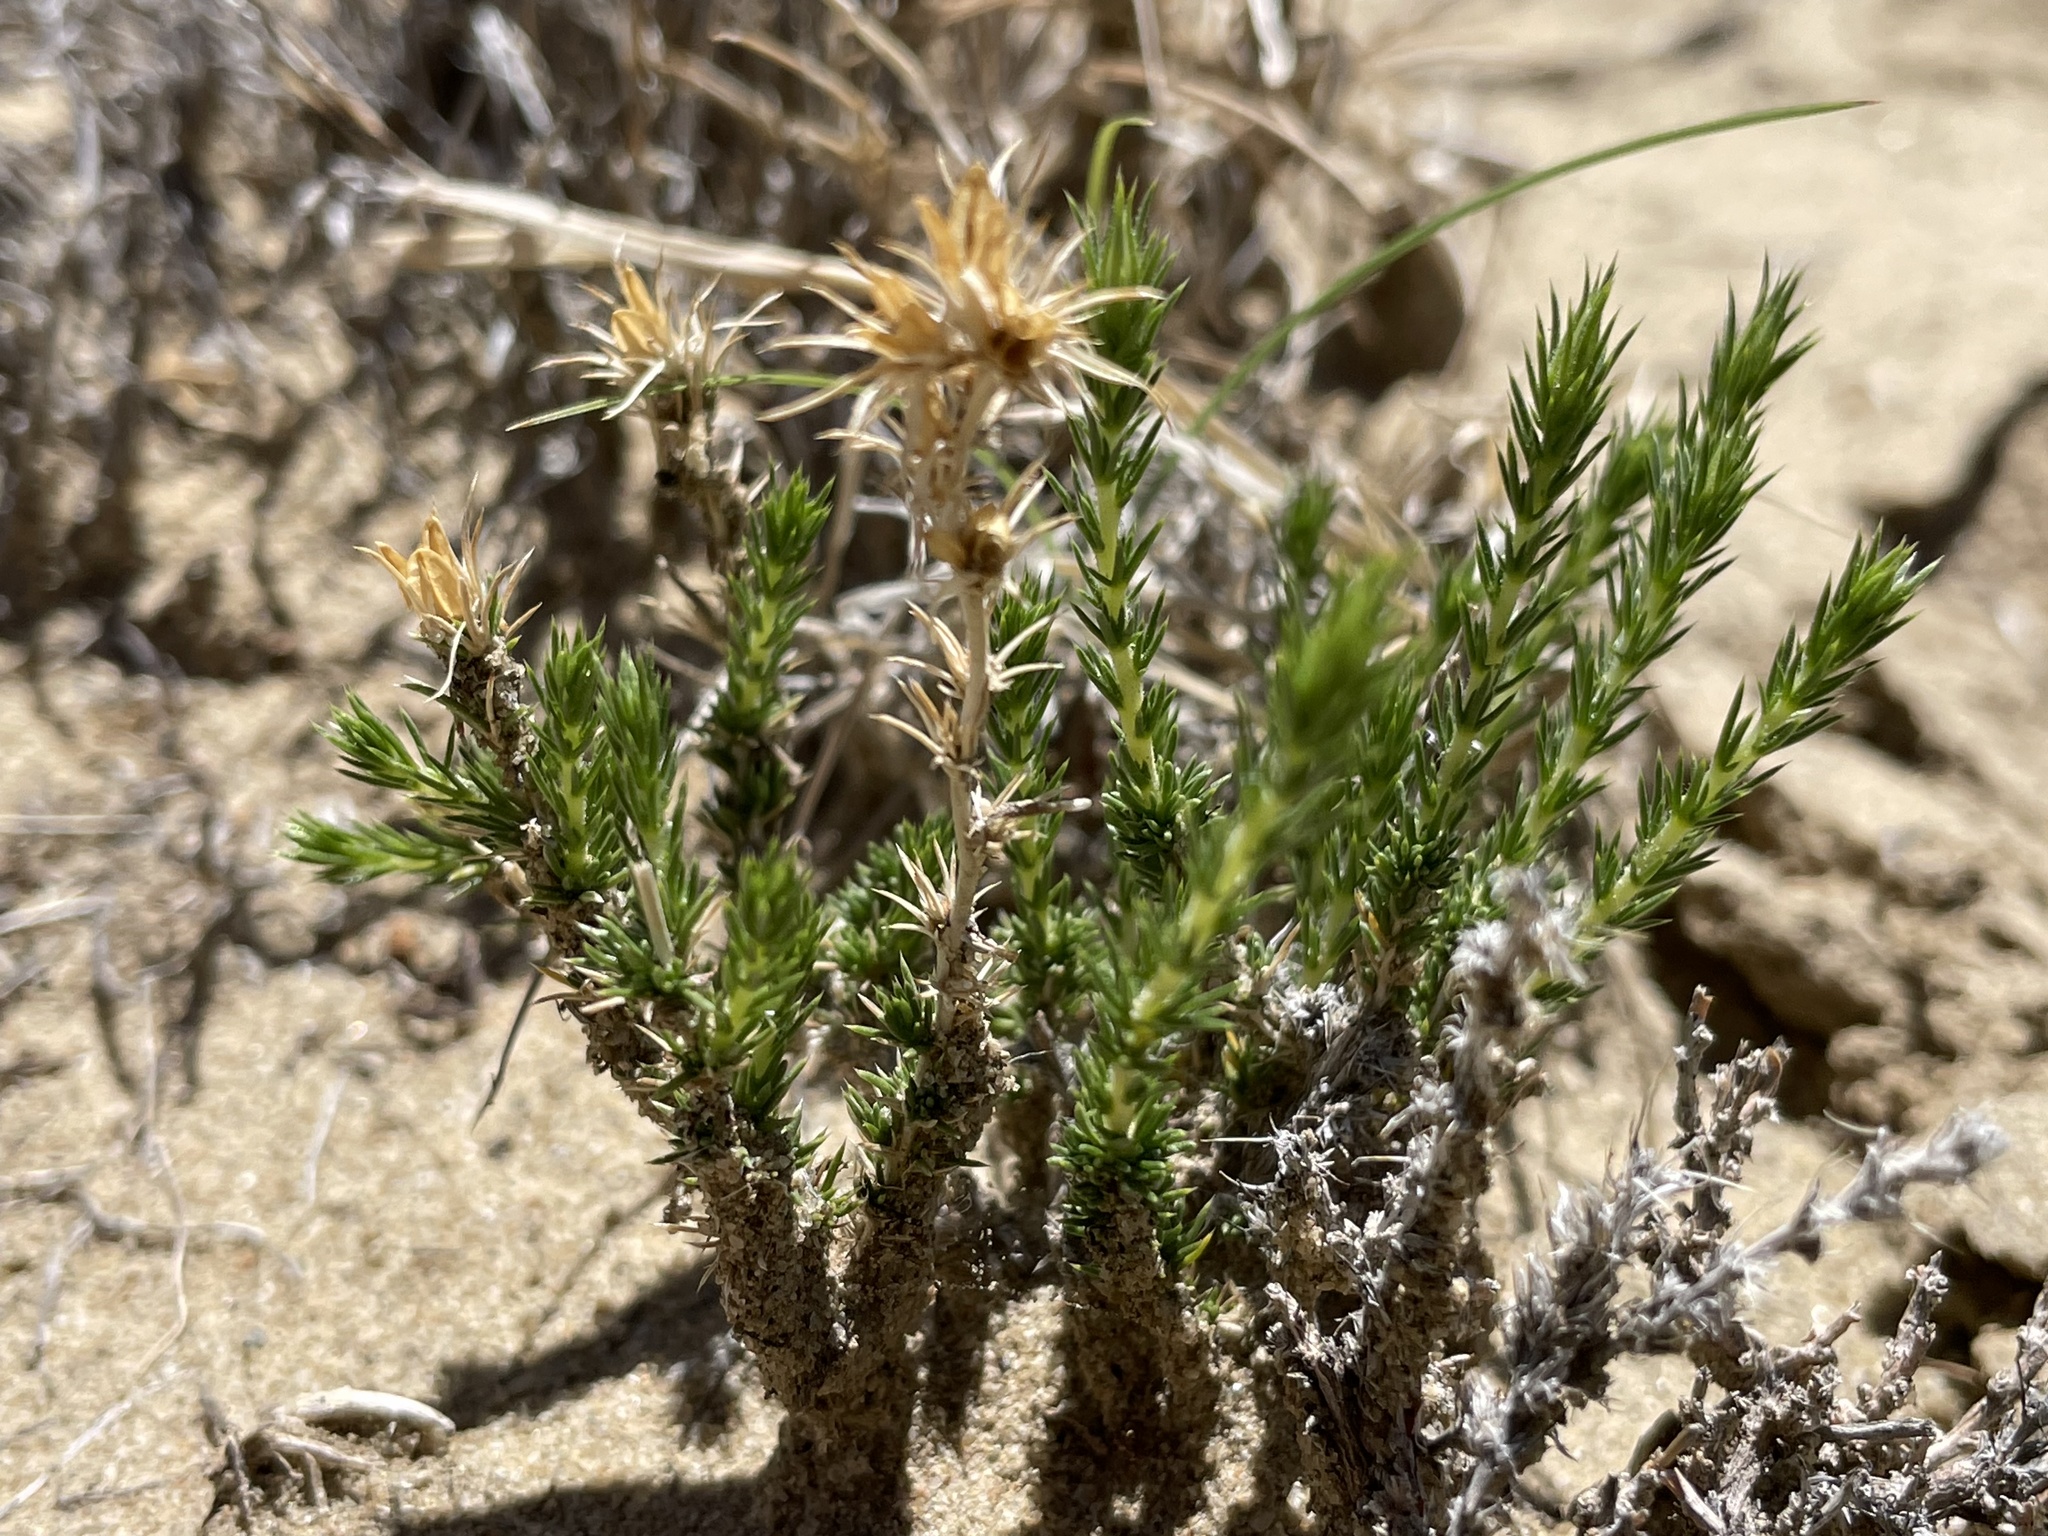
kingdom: Plantae
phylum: Tracheophyta
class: Magnoliopsida
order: Ericales
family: Polemoniaceae
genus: Linanthus
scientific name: Linanthus pungens
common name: Granite prickly phlox
